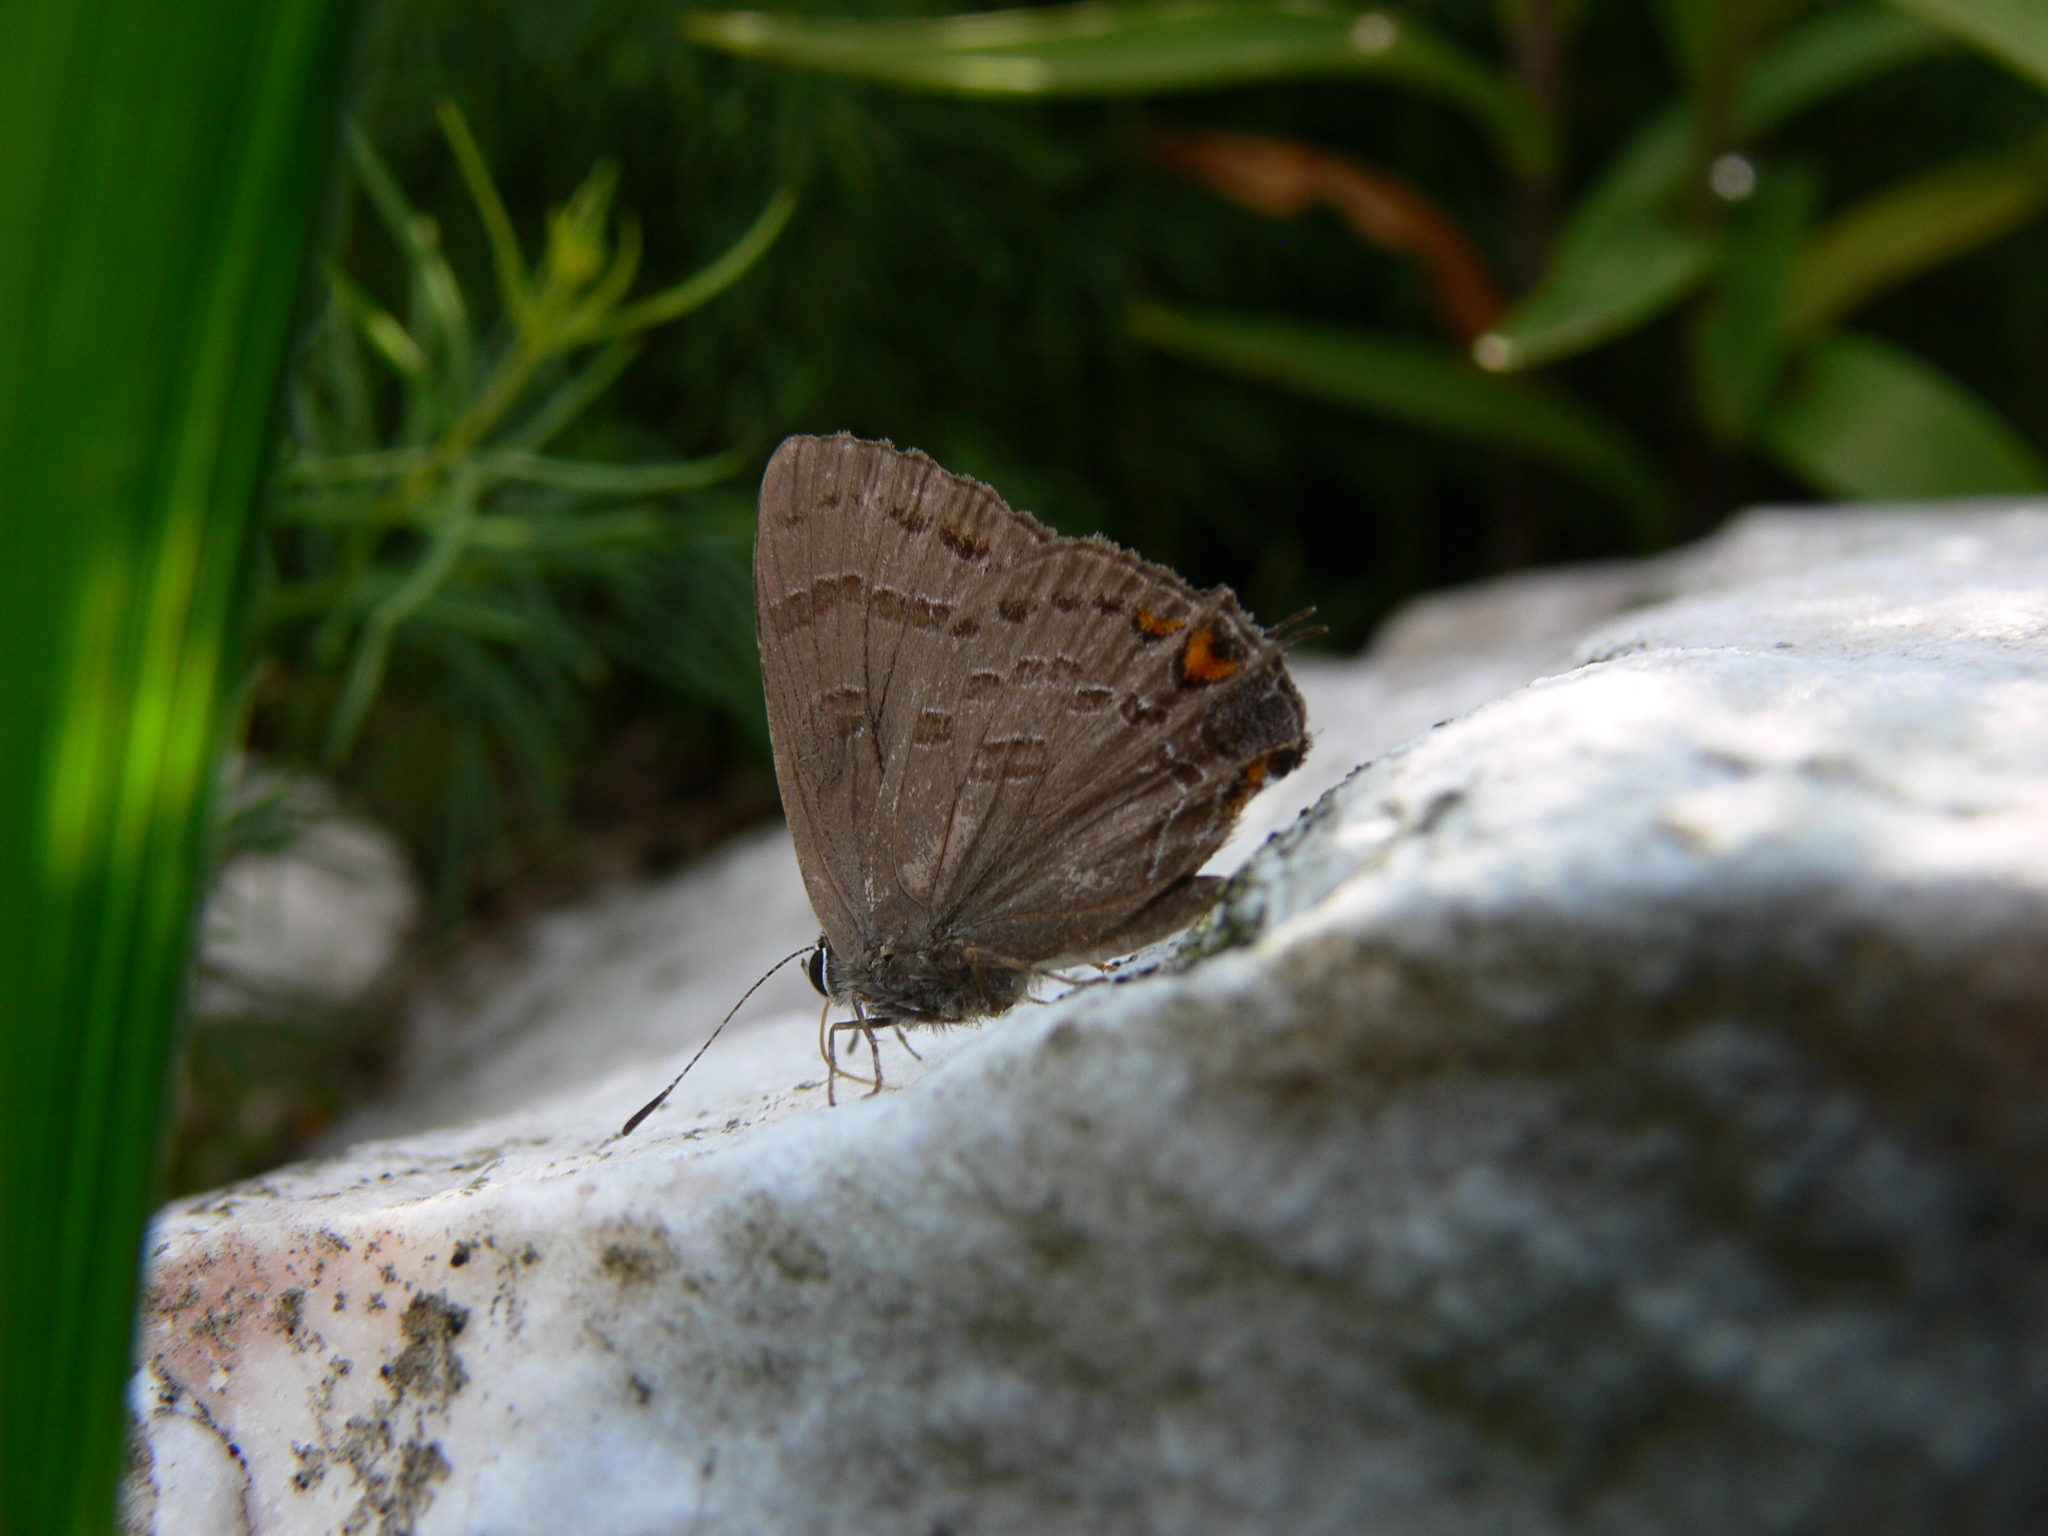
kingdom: Animalia
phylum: Arthropoda
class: Insecta
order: Lepidoptera
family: Lycaenidae
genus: Satyrium
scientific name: Satyrium calanus
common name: Banded hairstreak
